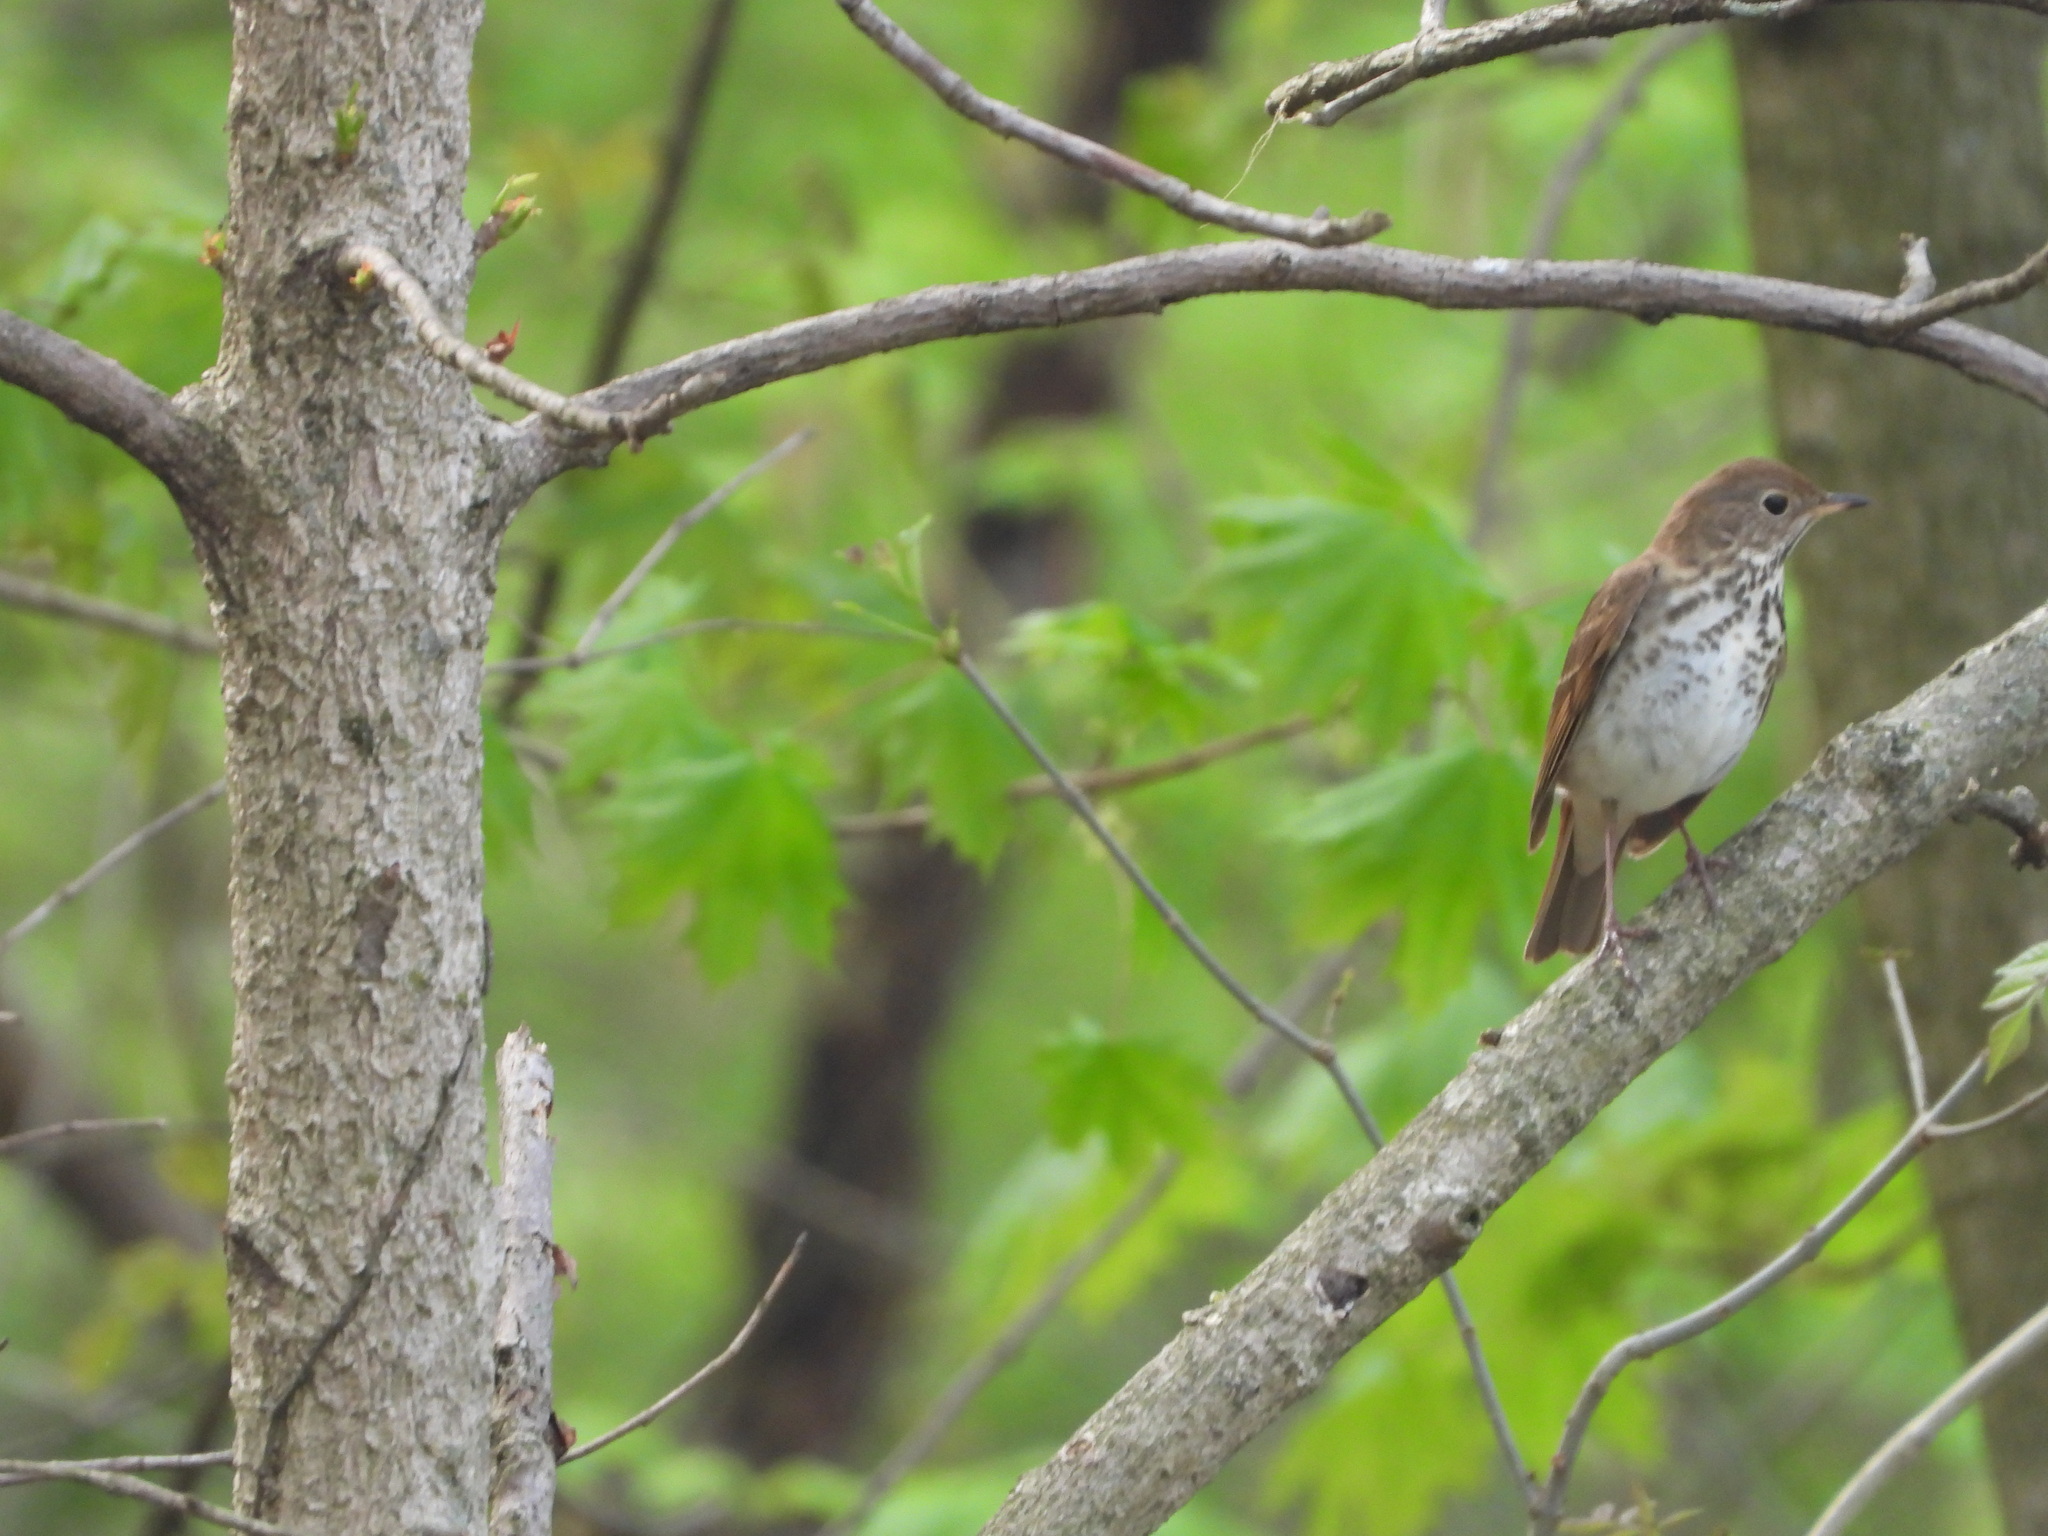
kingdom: Animalia
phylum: Chordata
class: Aves
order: Passeriformes
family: Turdidae
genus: Catharus
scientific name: Catharus guttatus
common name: Hermit thrush
